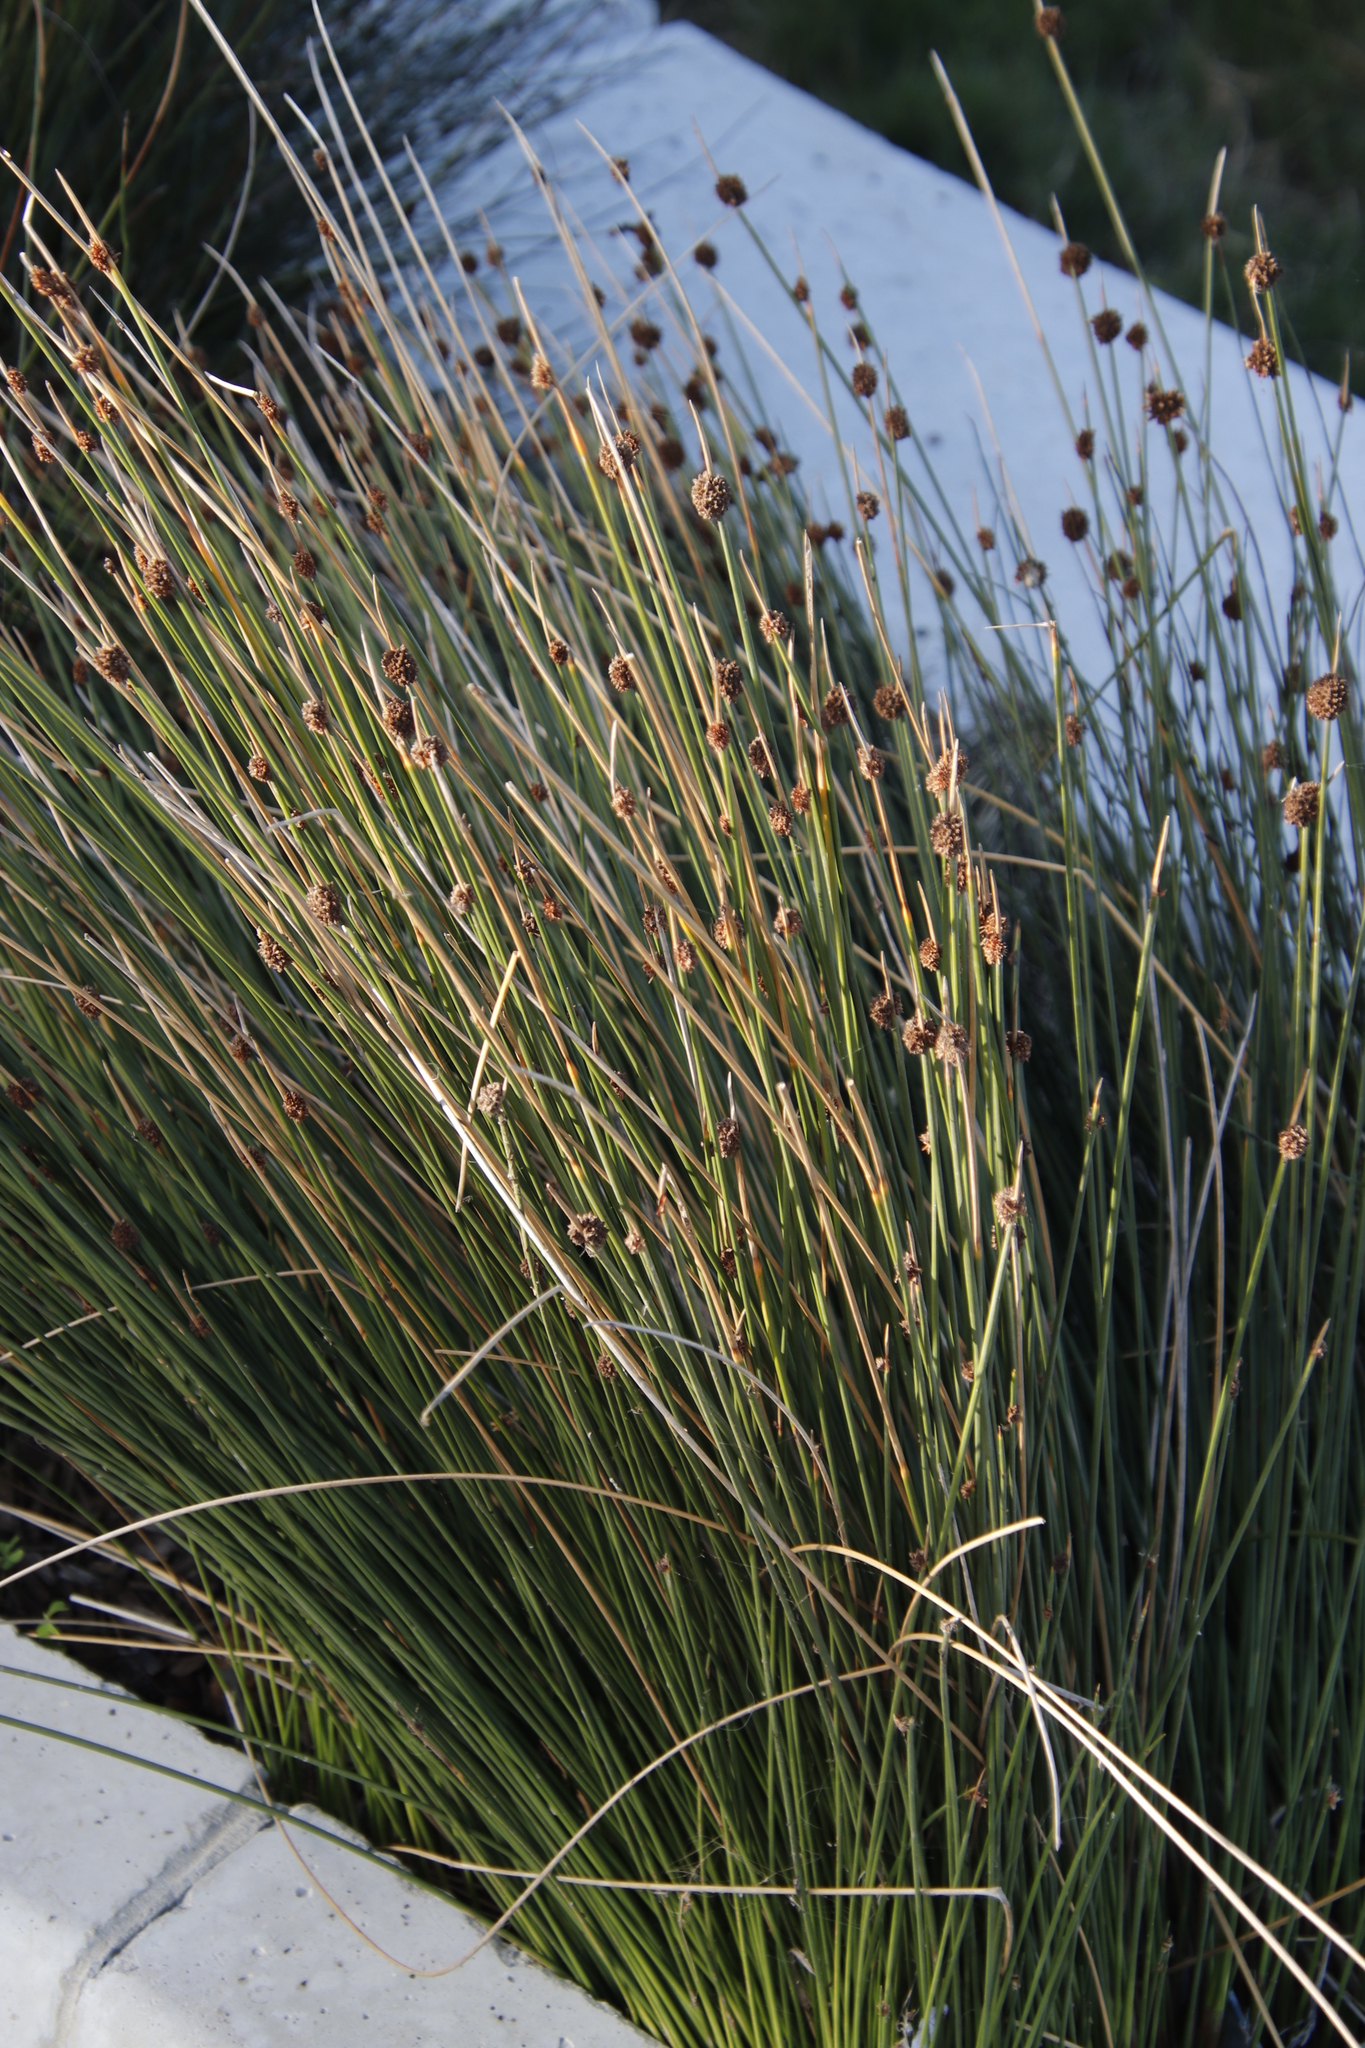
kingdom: Plantae
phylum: Tracheophyta
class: Liliopsida
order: Poales
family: Cyperaceae
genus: Ficinia
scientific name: Ficinia nodosa
